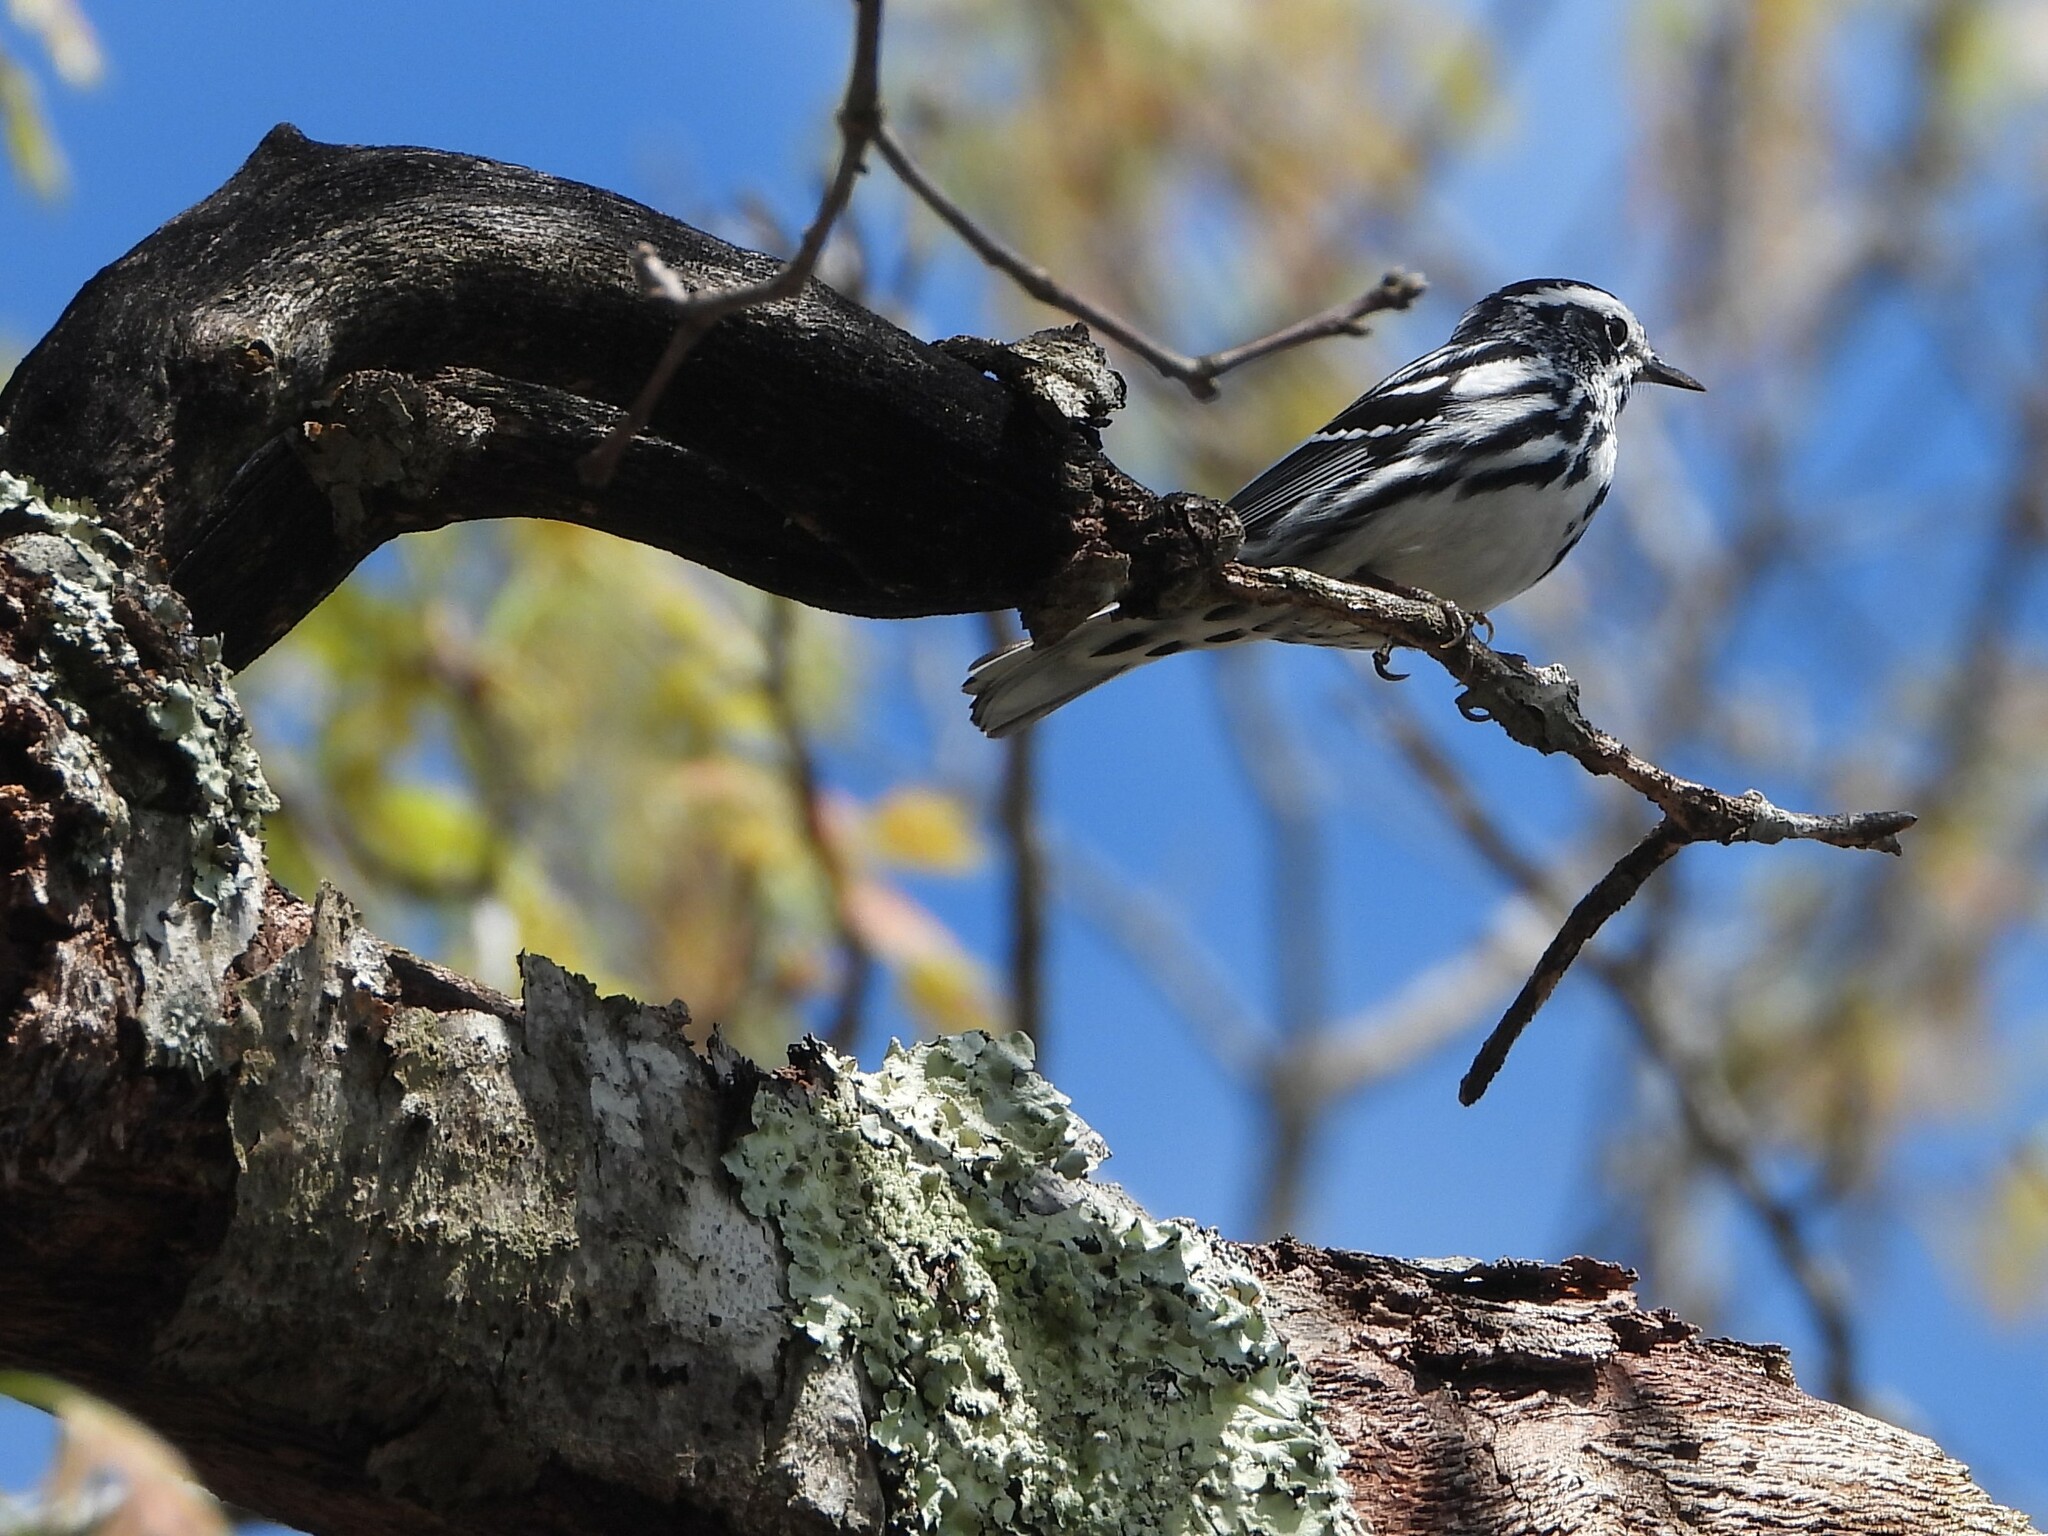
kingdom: Animalia
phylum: Chordata
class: Aves
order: Passeriformes
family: Parulidae
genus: Mniotilta
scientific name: Mniotilta varia
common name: Black-and-white warbler
